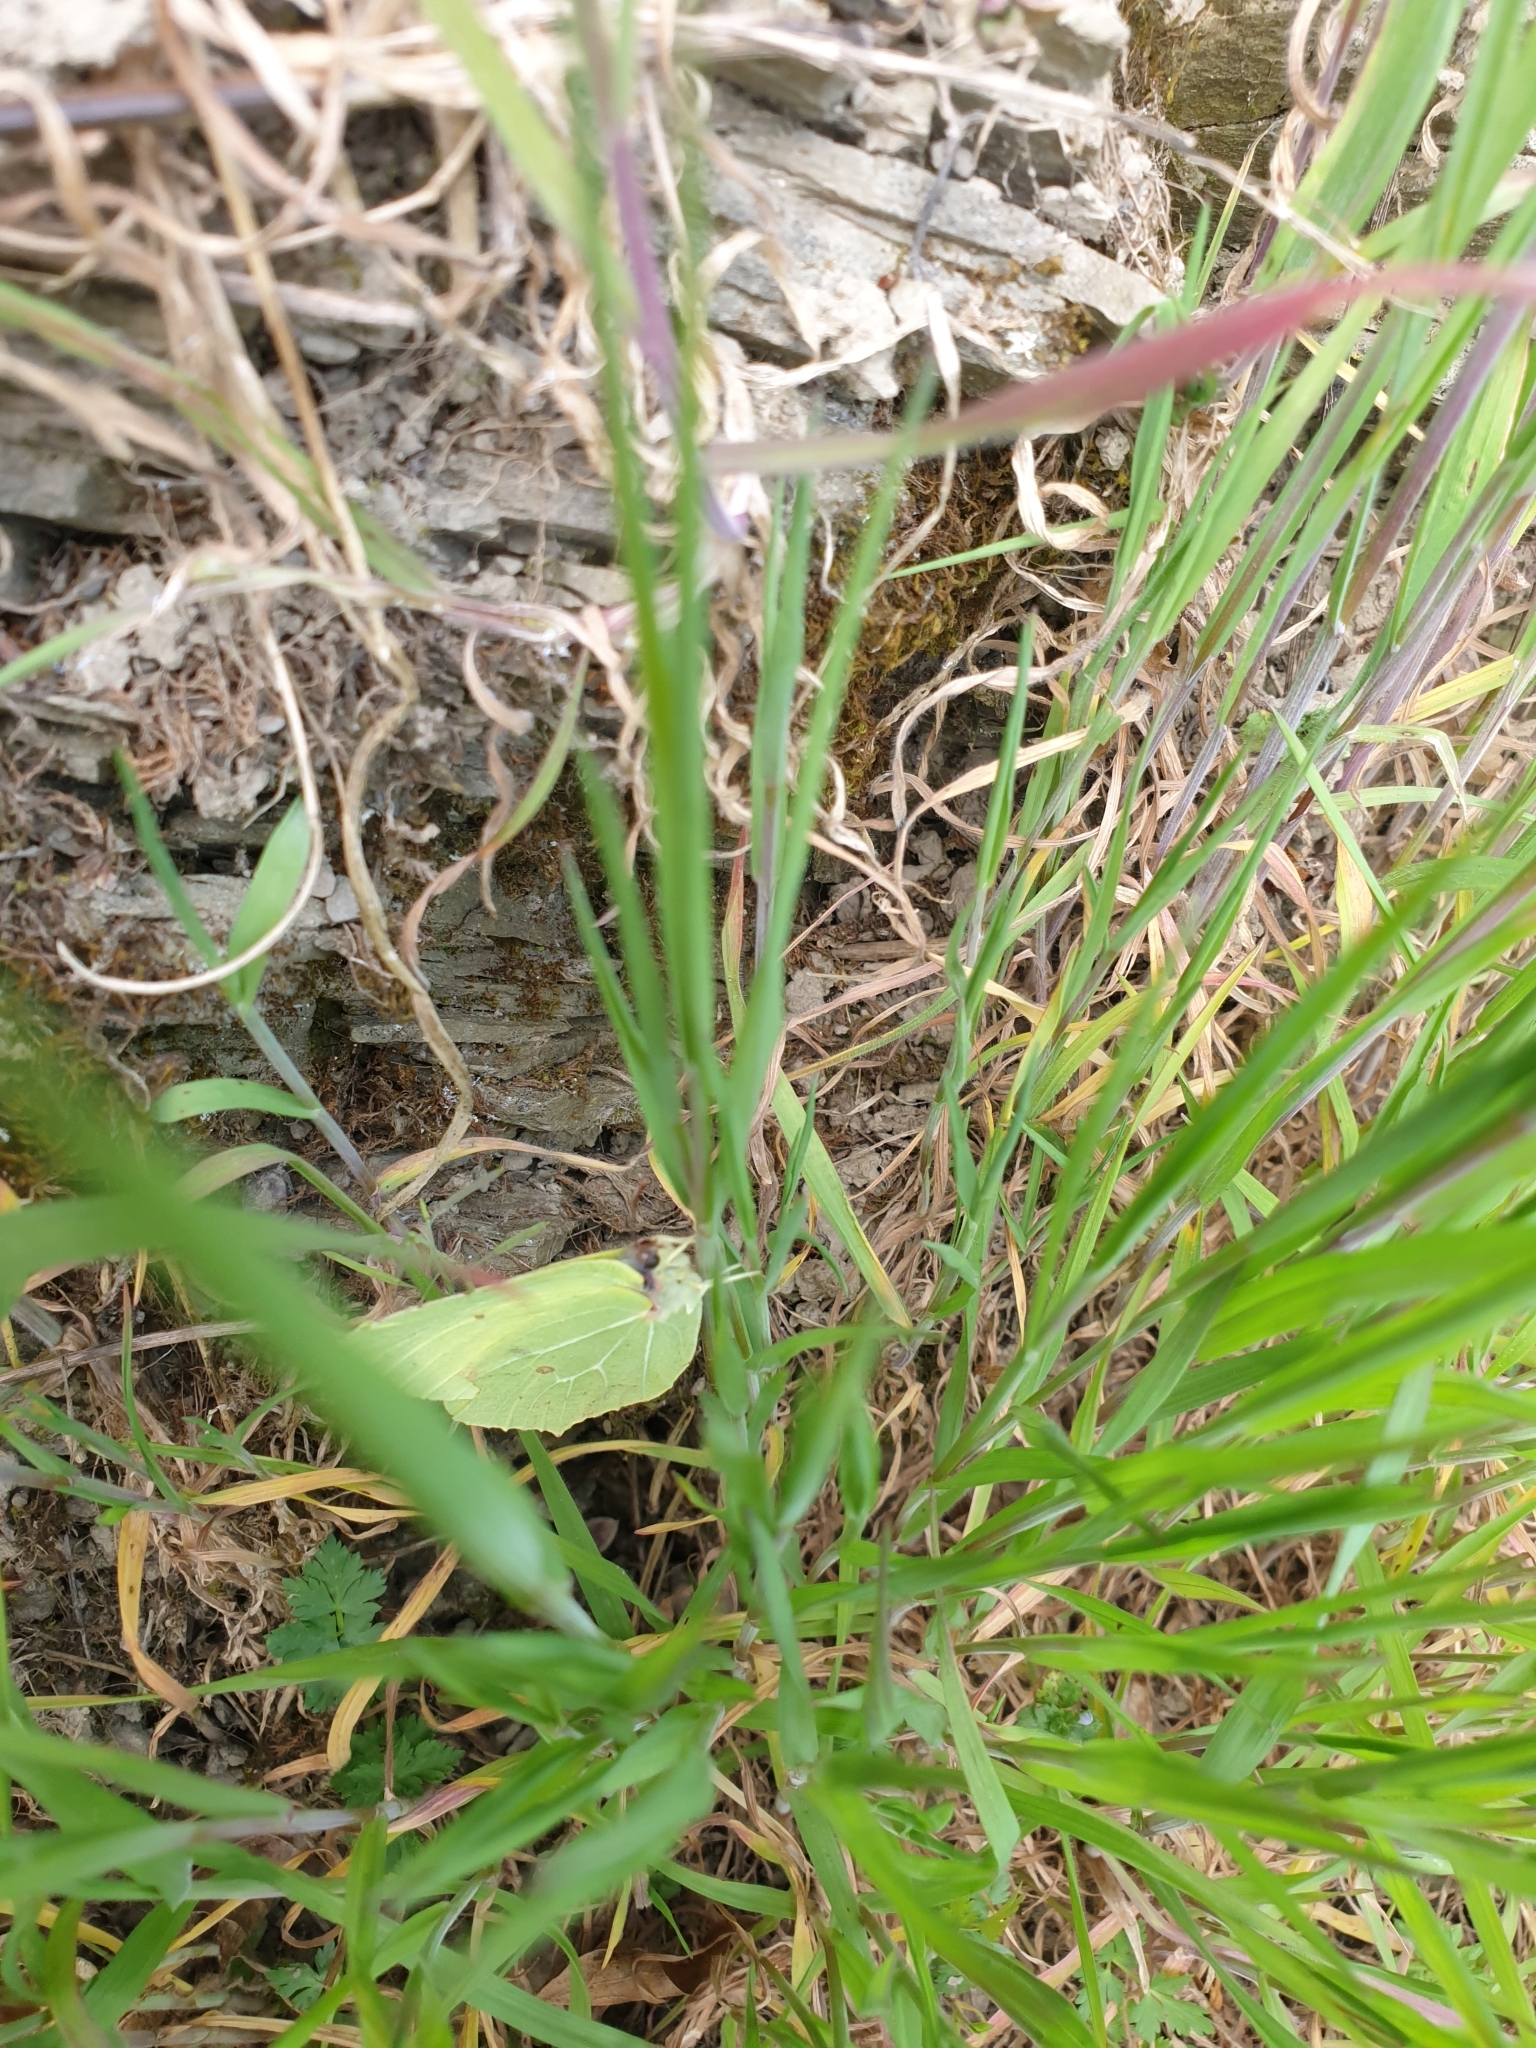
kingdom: Animalia
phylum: Arthropoda
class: Insecta
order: Lepidoptera
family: Pieridae
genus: Gonepteryx
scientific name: Gonepteryx rhamni
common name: Brimstone
